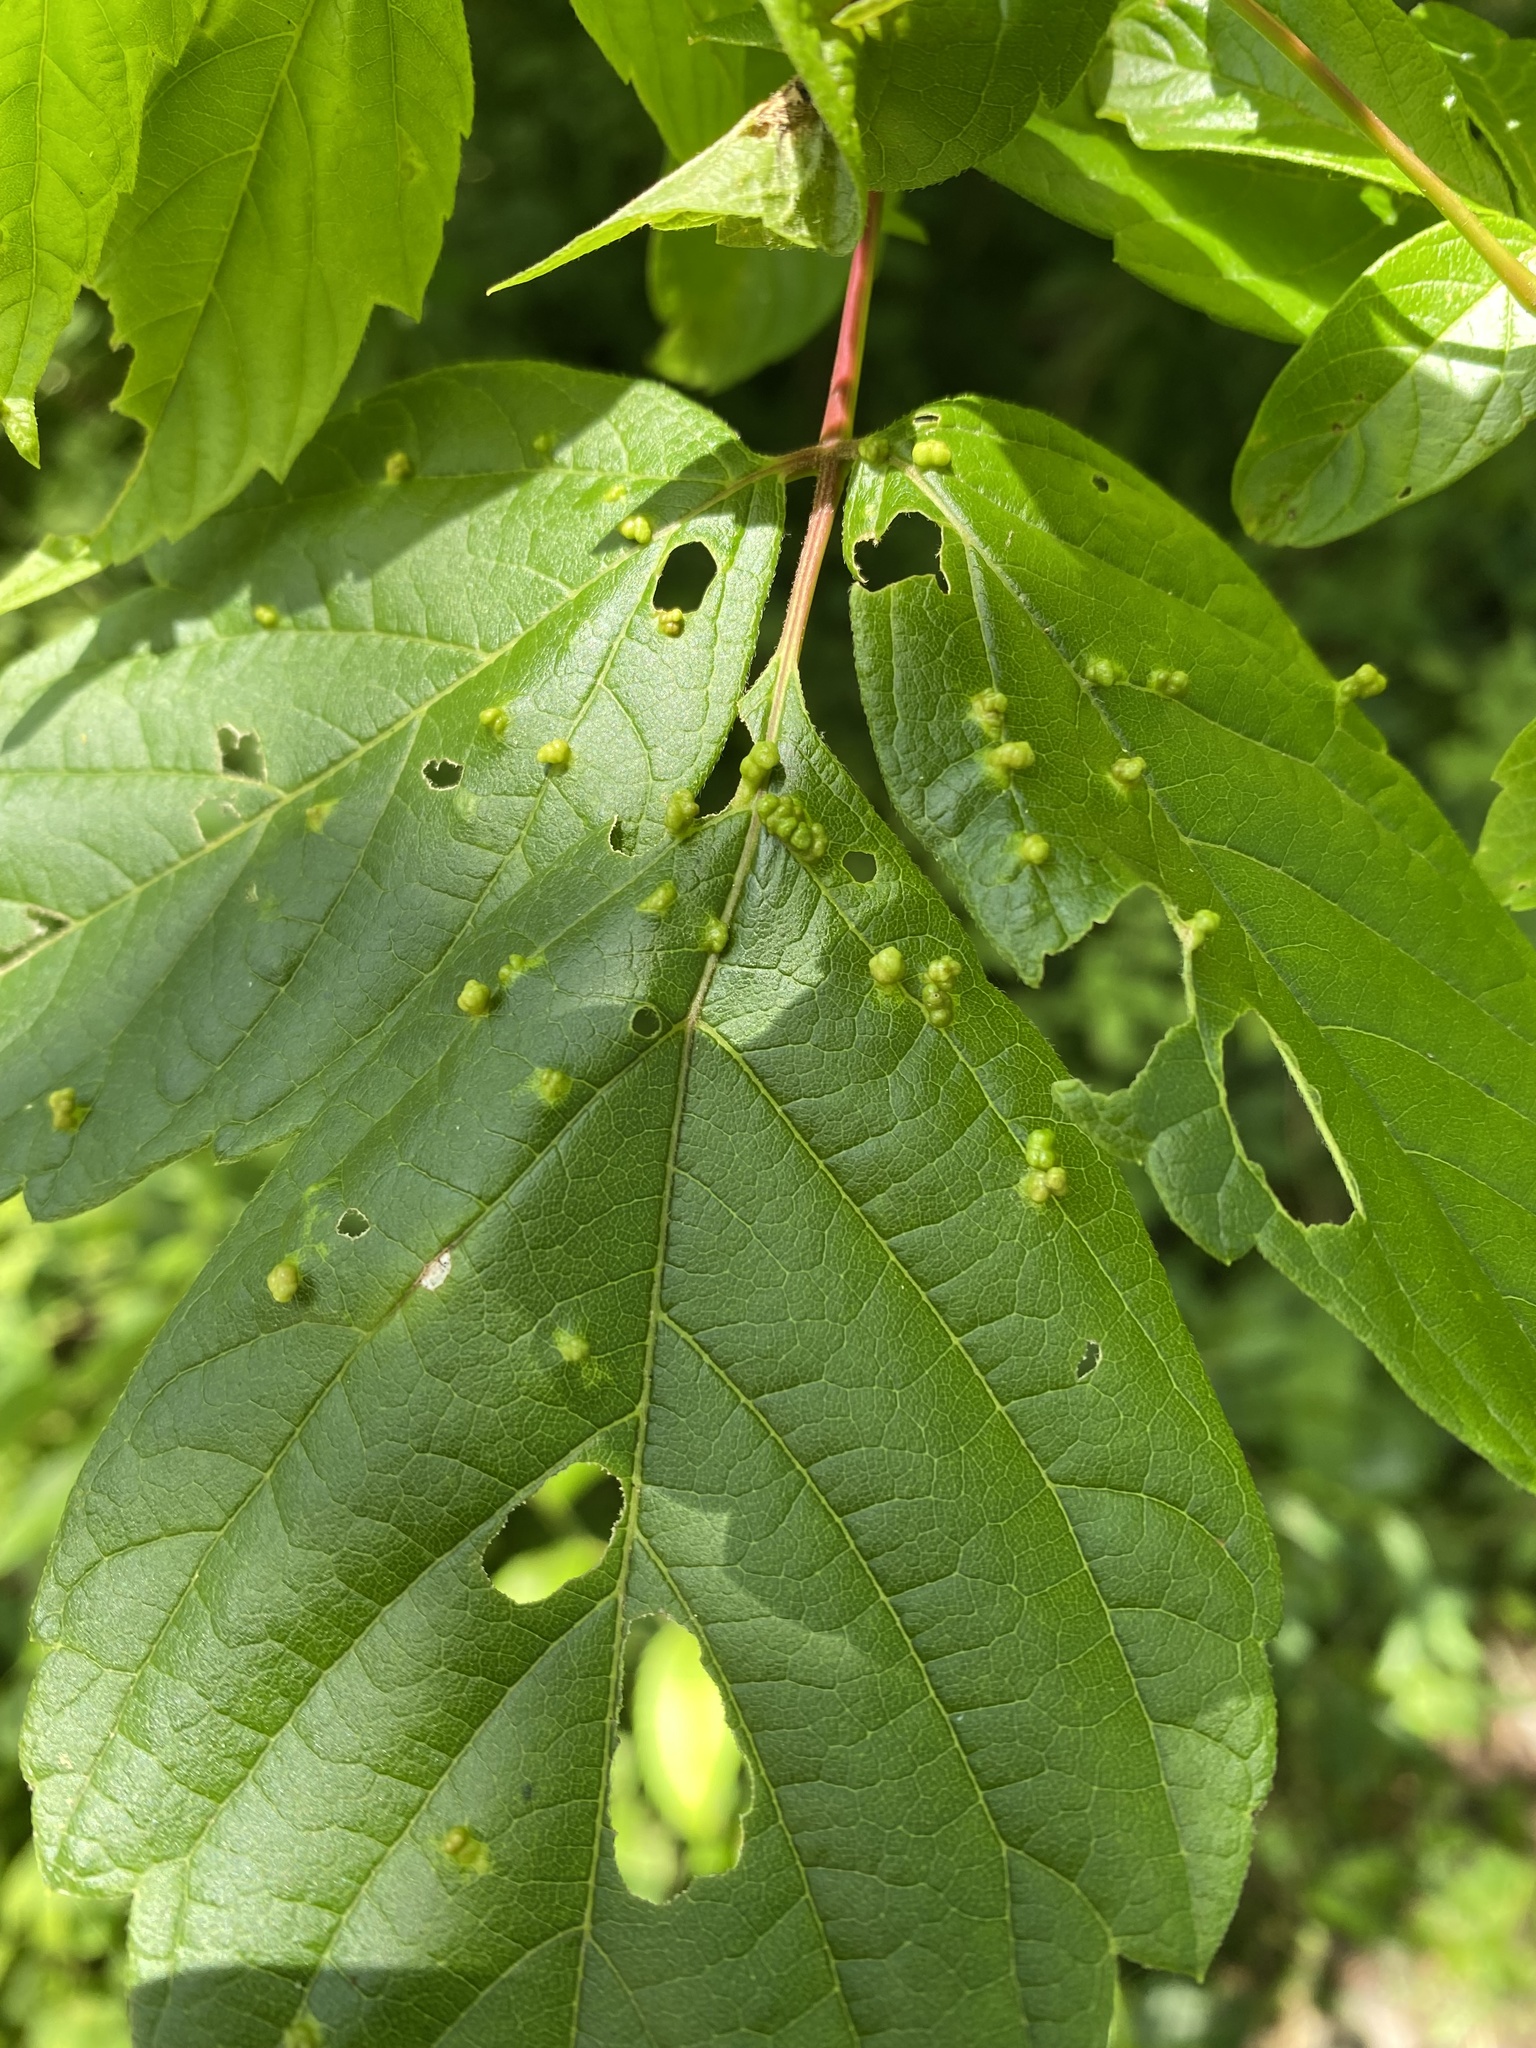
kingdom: Animalia
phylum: Arthropoda
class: Arachnida
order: Trombidiformes
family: Eriophyidae
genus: Aceria
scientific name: Aceria
